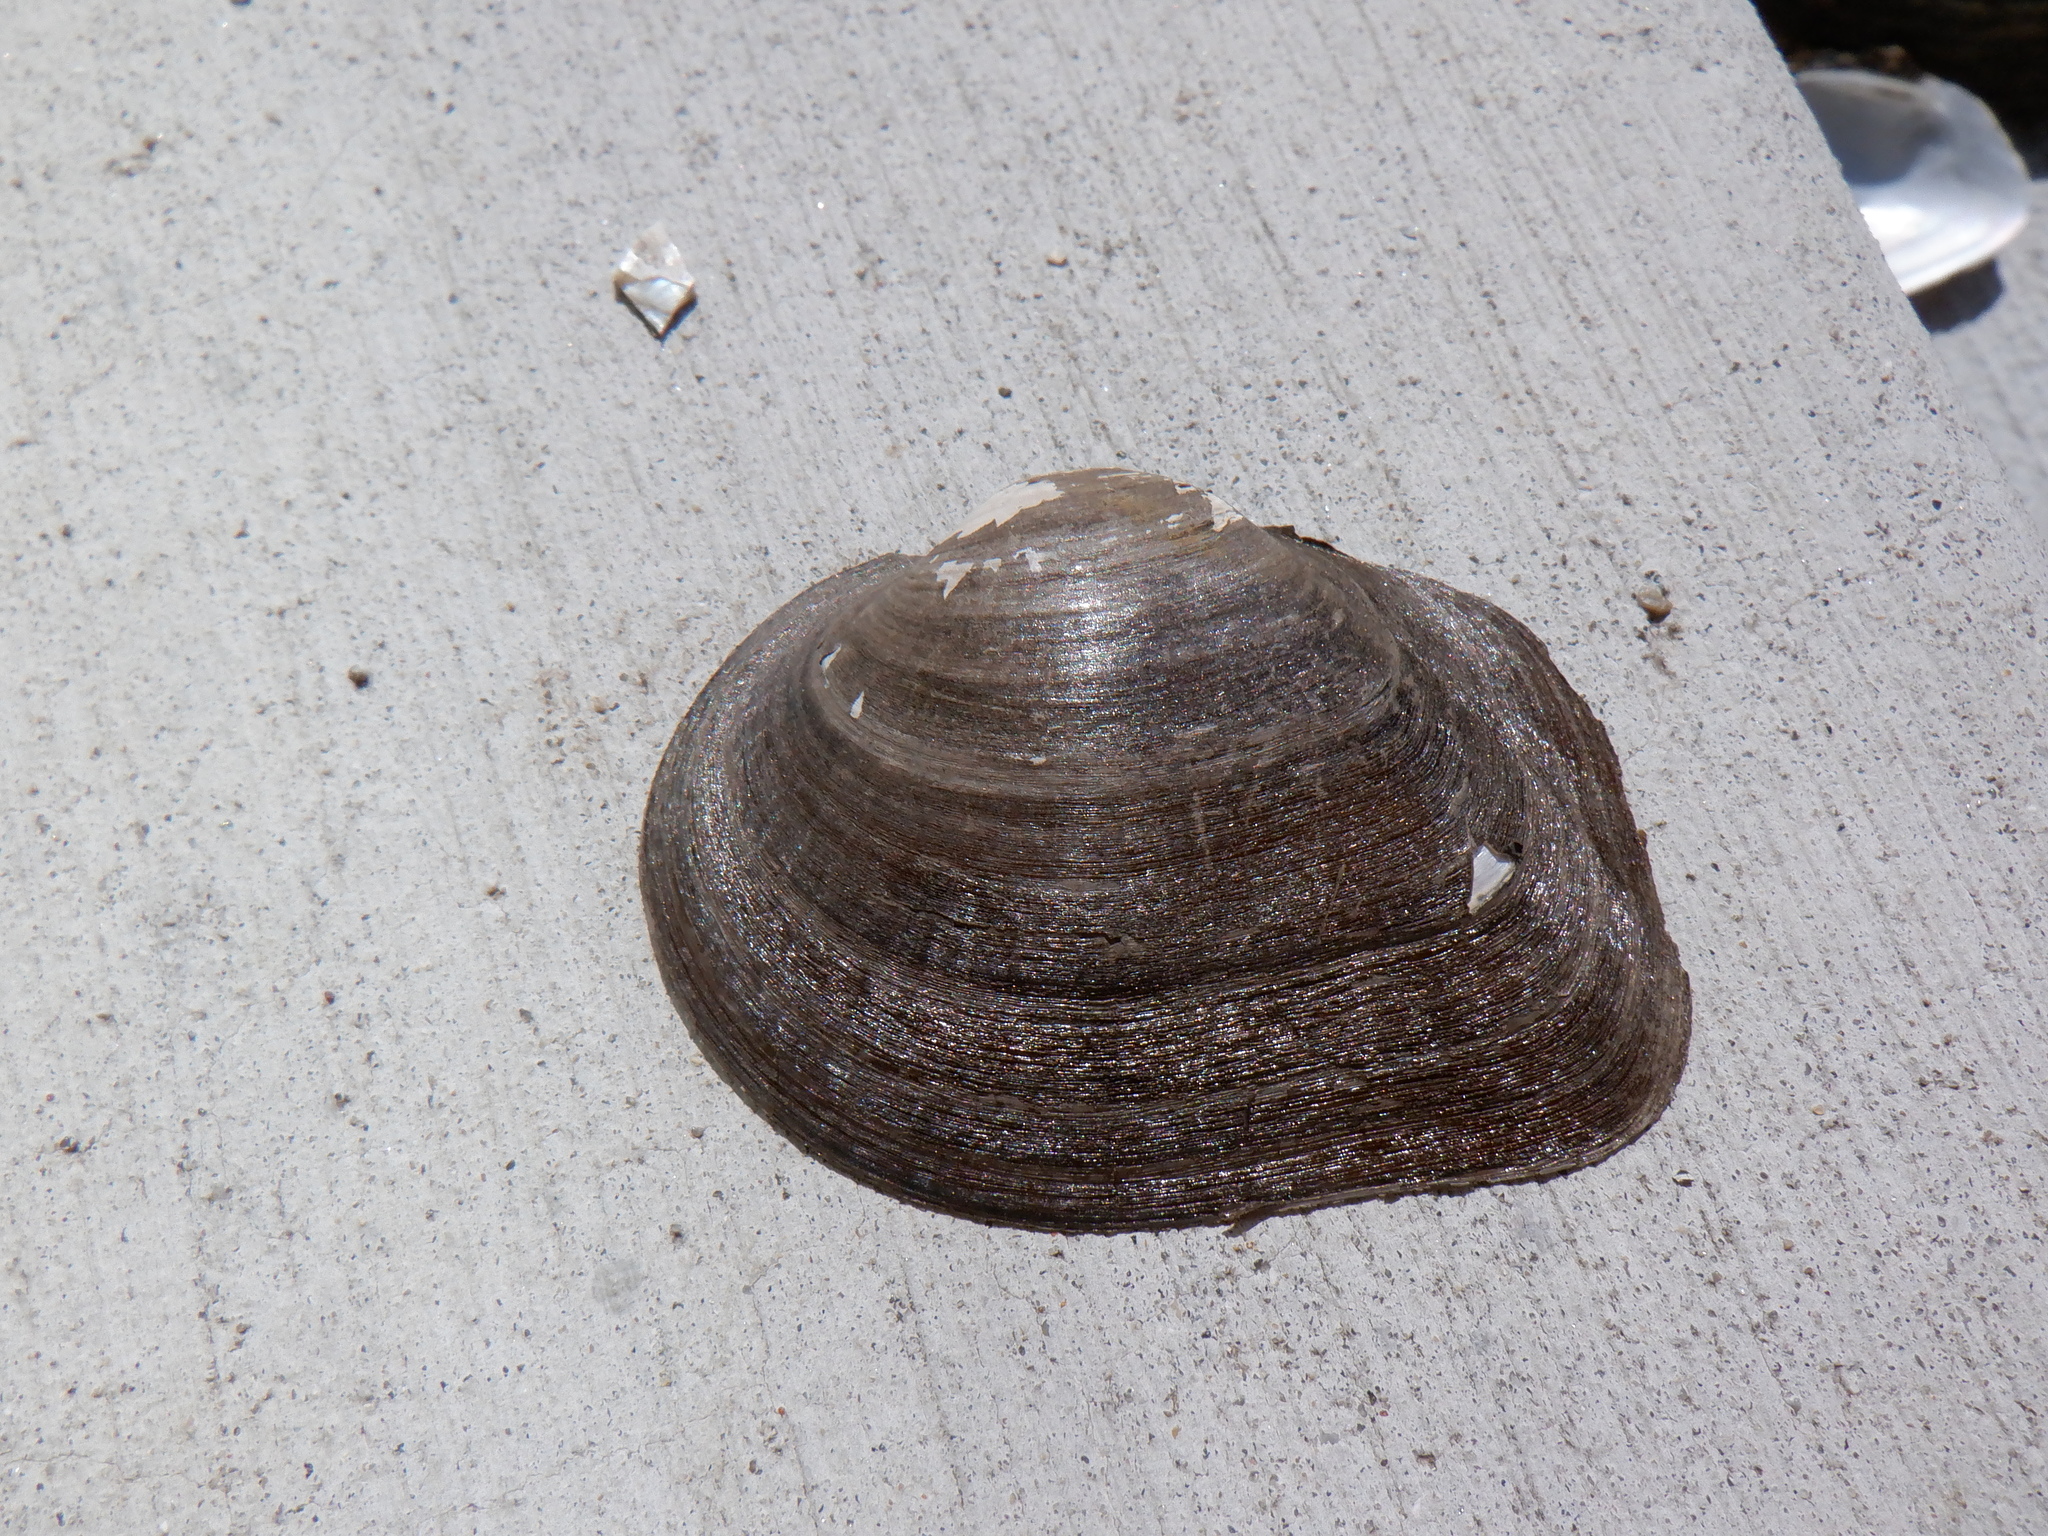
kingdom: Animalia
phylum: Mollusca
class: Bivalvia
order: Unionida
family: Unionidae
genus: Fusconaia
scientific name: Fusconaia flava
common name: Wabash pigtoe
